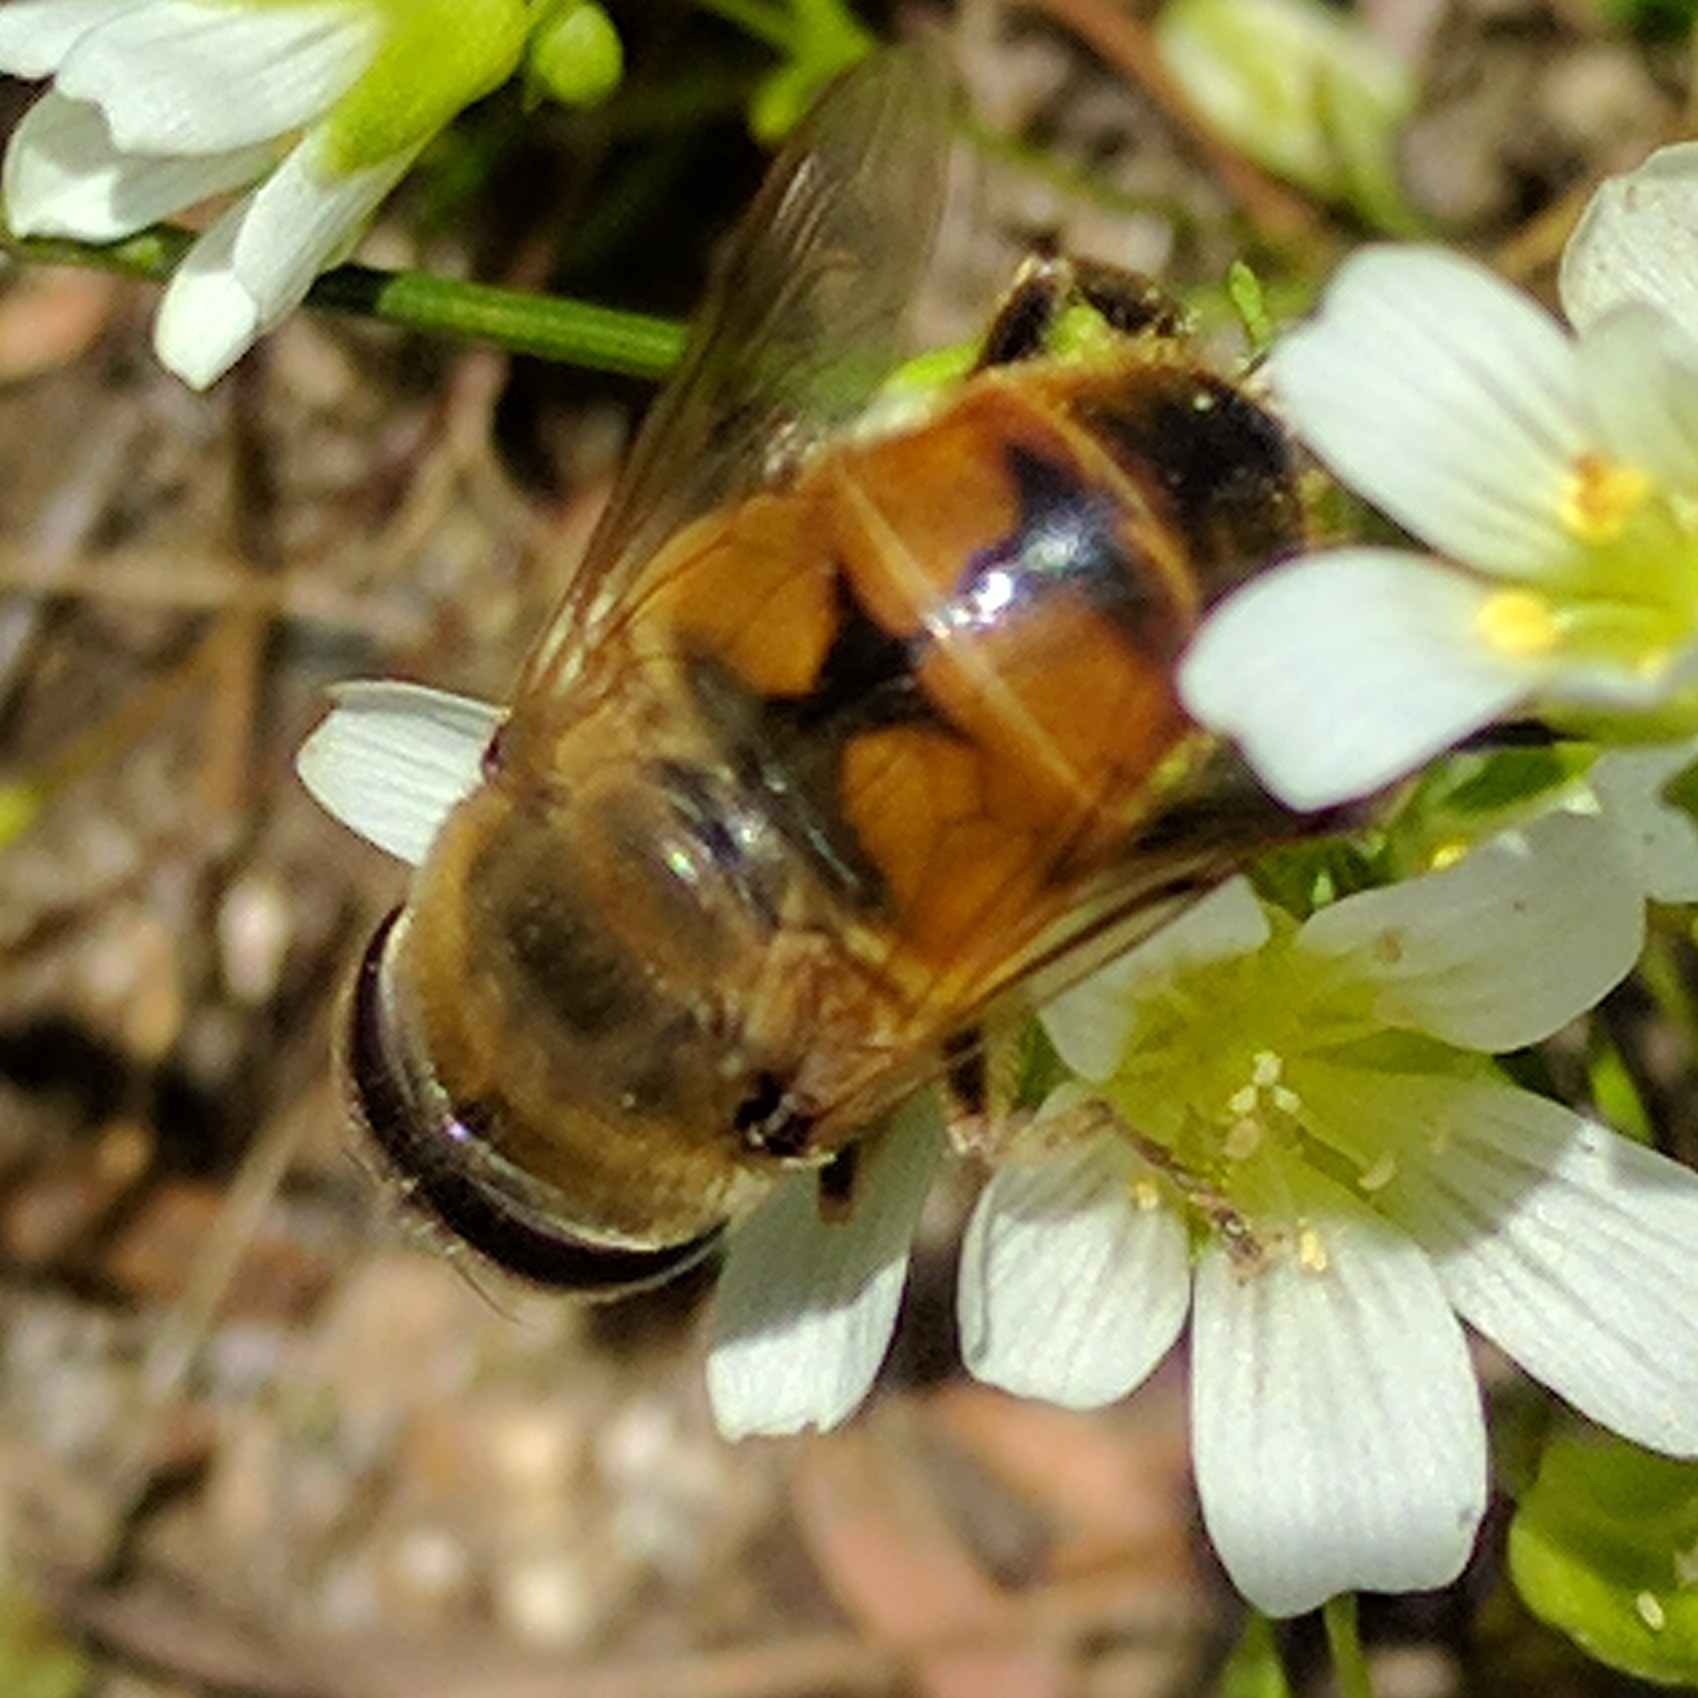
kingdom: Animalia
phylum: Arthropoda
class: Insecta
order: Diptera
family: Syrphidae
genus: Eristalis
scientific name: Eristalis tenax
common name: Drone fly
